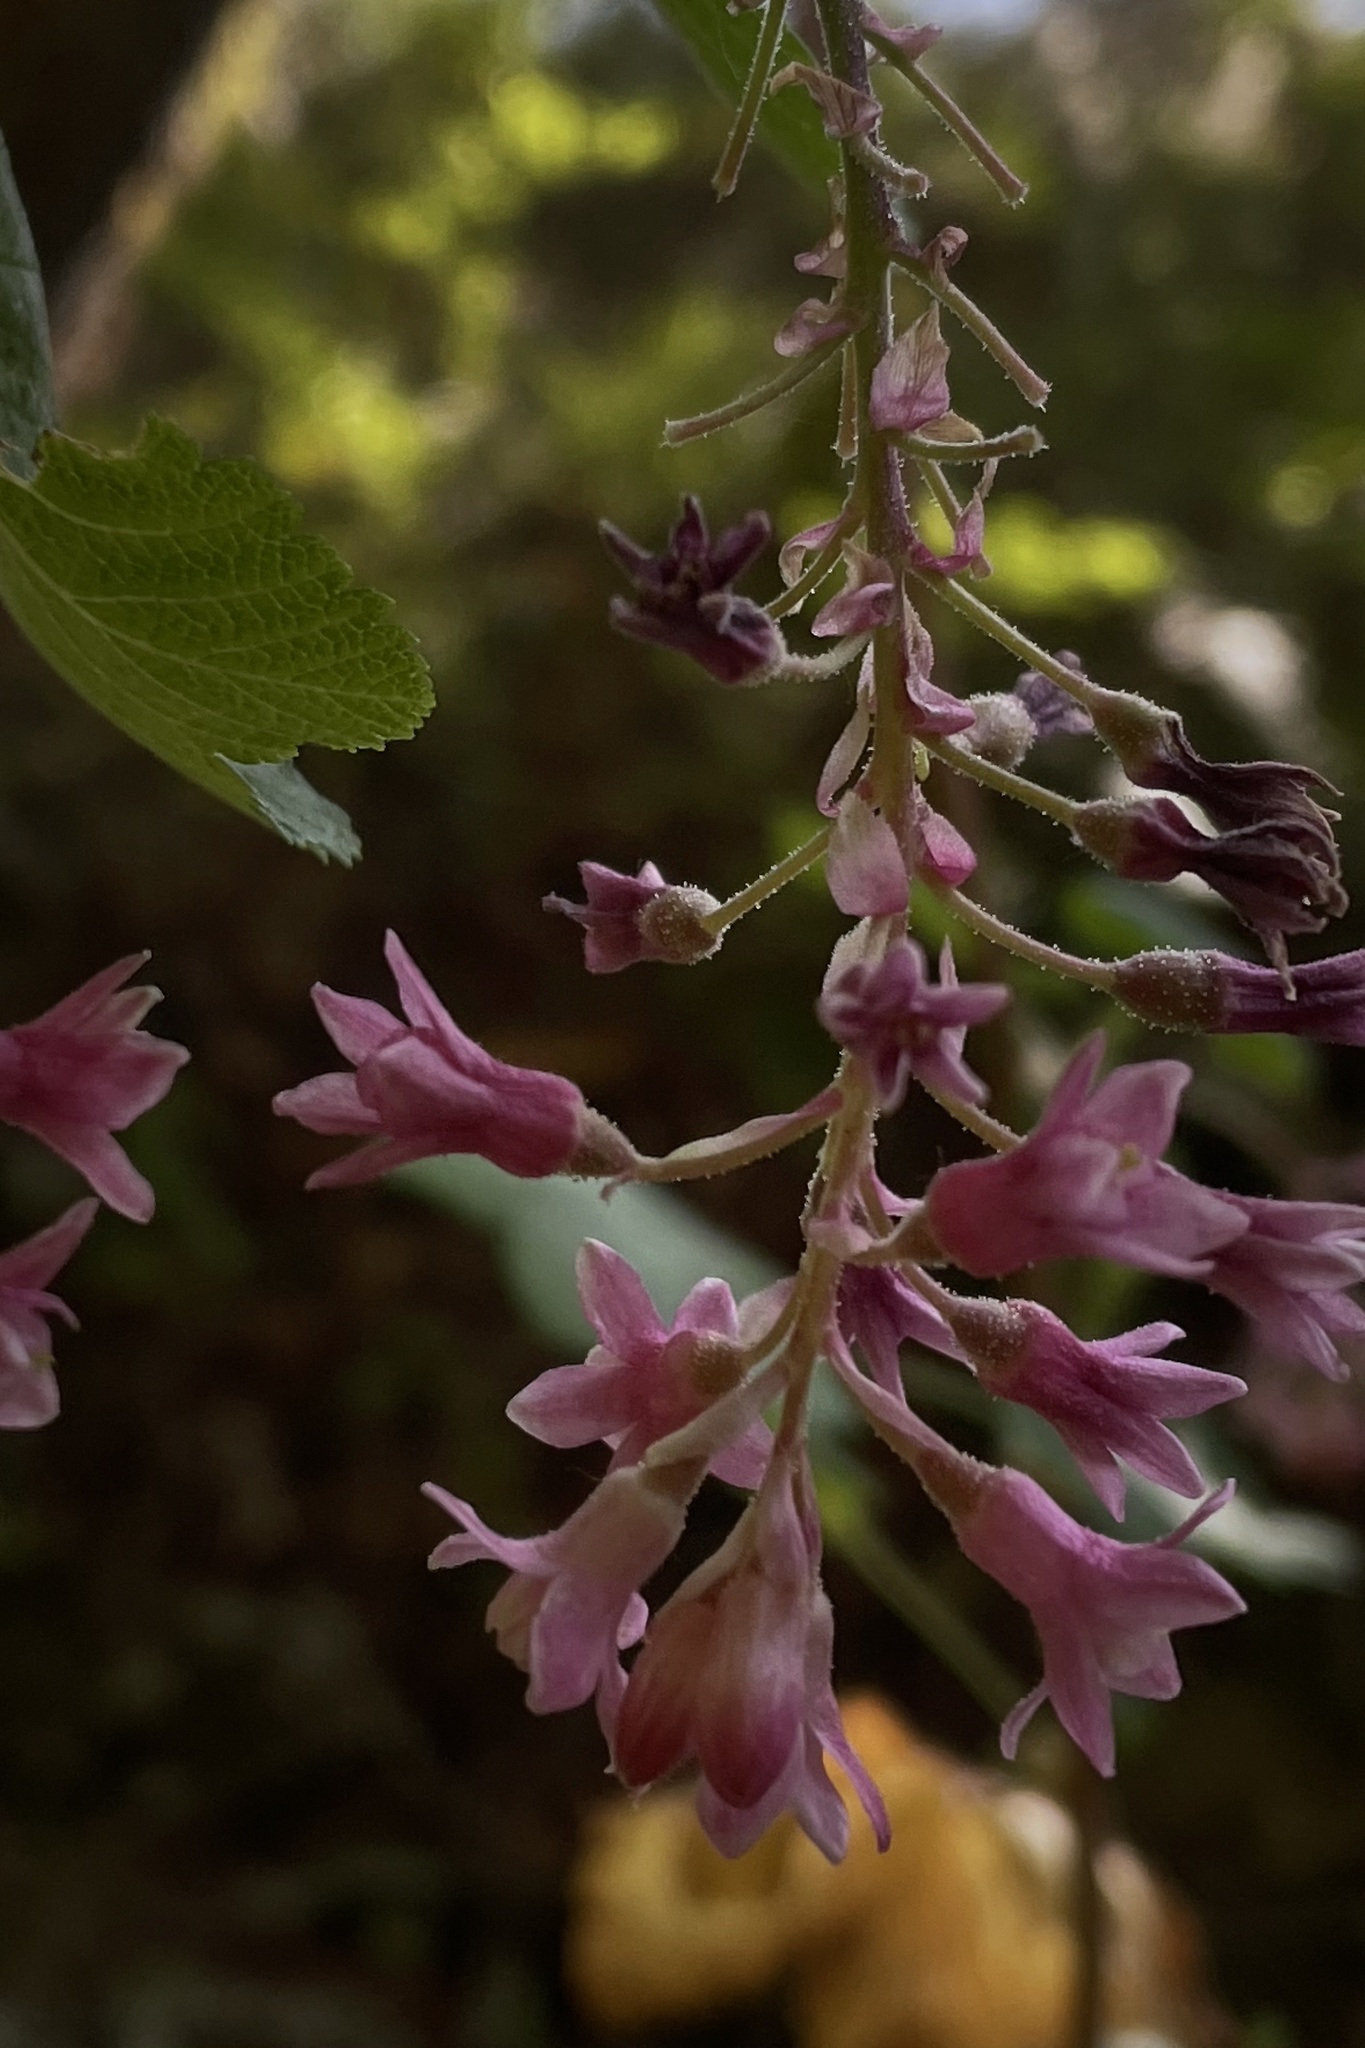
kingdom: Plantae
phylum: Tracheophyta
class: Magnoliopsida
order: Saxifragales
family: Grossulariaceae
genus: Ribes
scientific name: Ribes sanguineum
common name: Flowering currant
